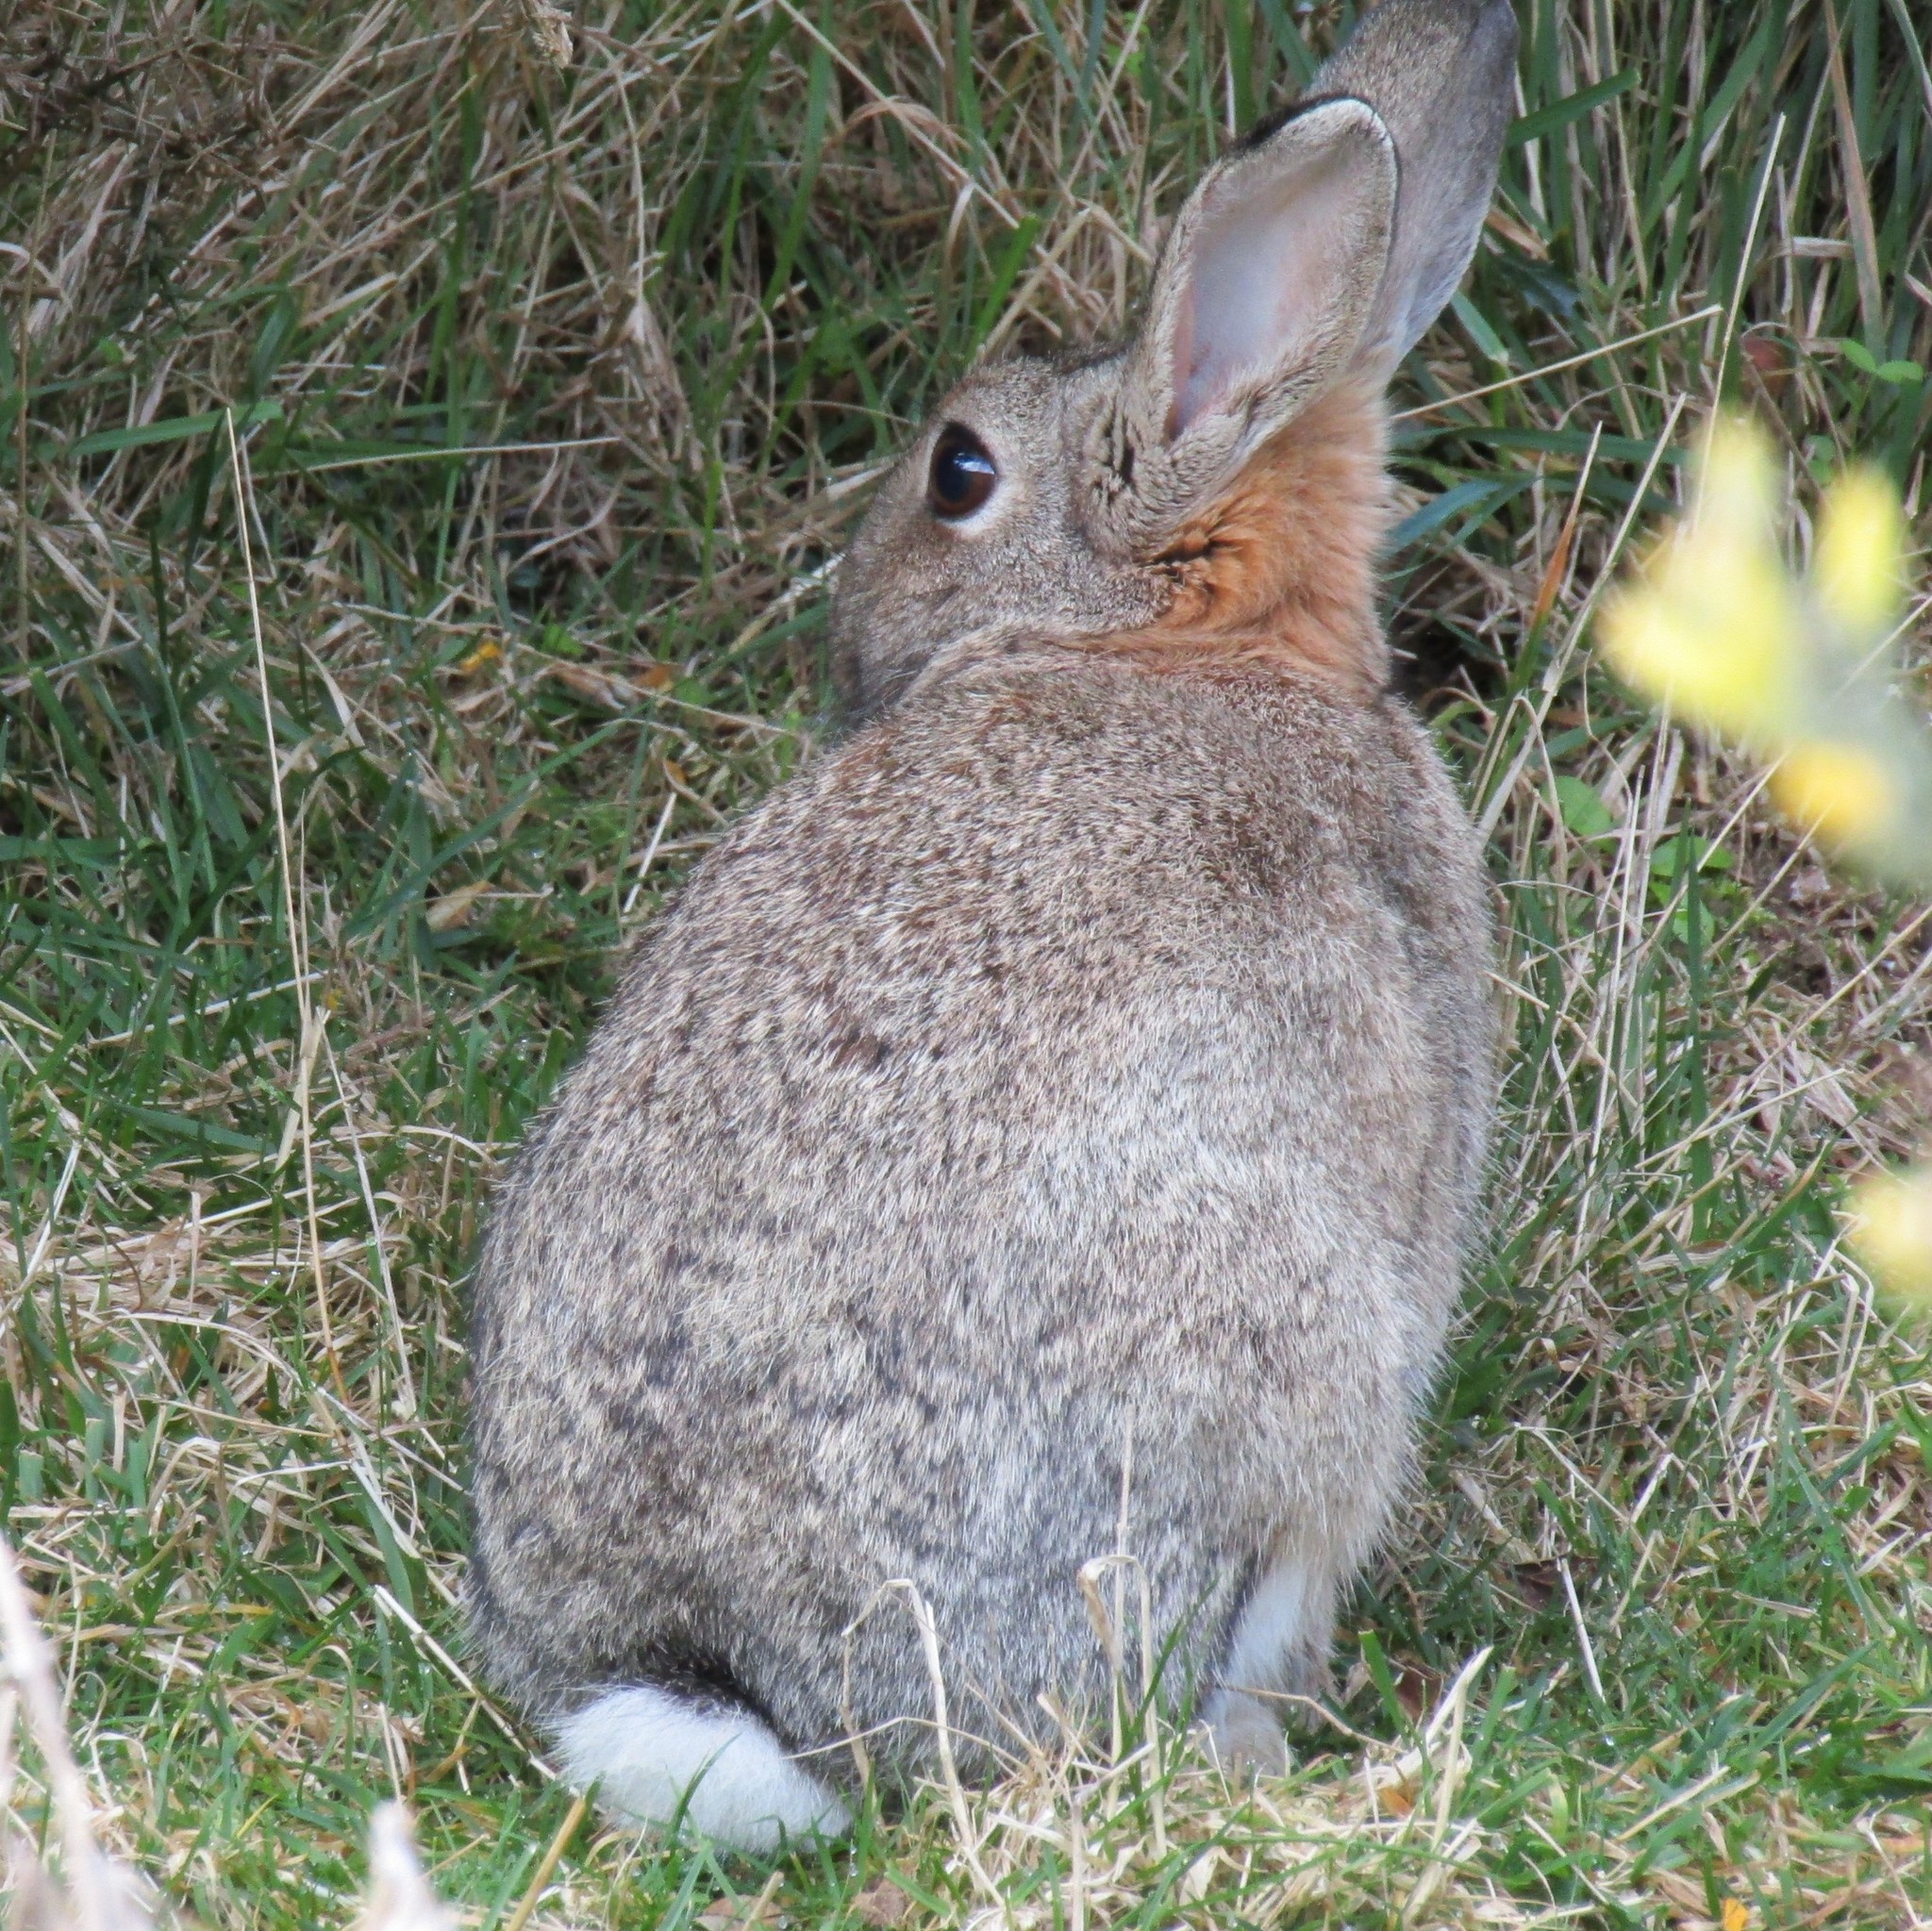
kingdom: Animalia
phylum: Chordata
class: Mammalia
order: Lagomorpha
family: Leporidae
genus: Oryctolagus
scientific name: Oryctolagus cuniculus
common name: European rabbit
